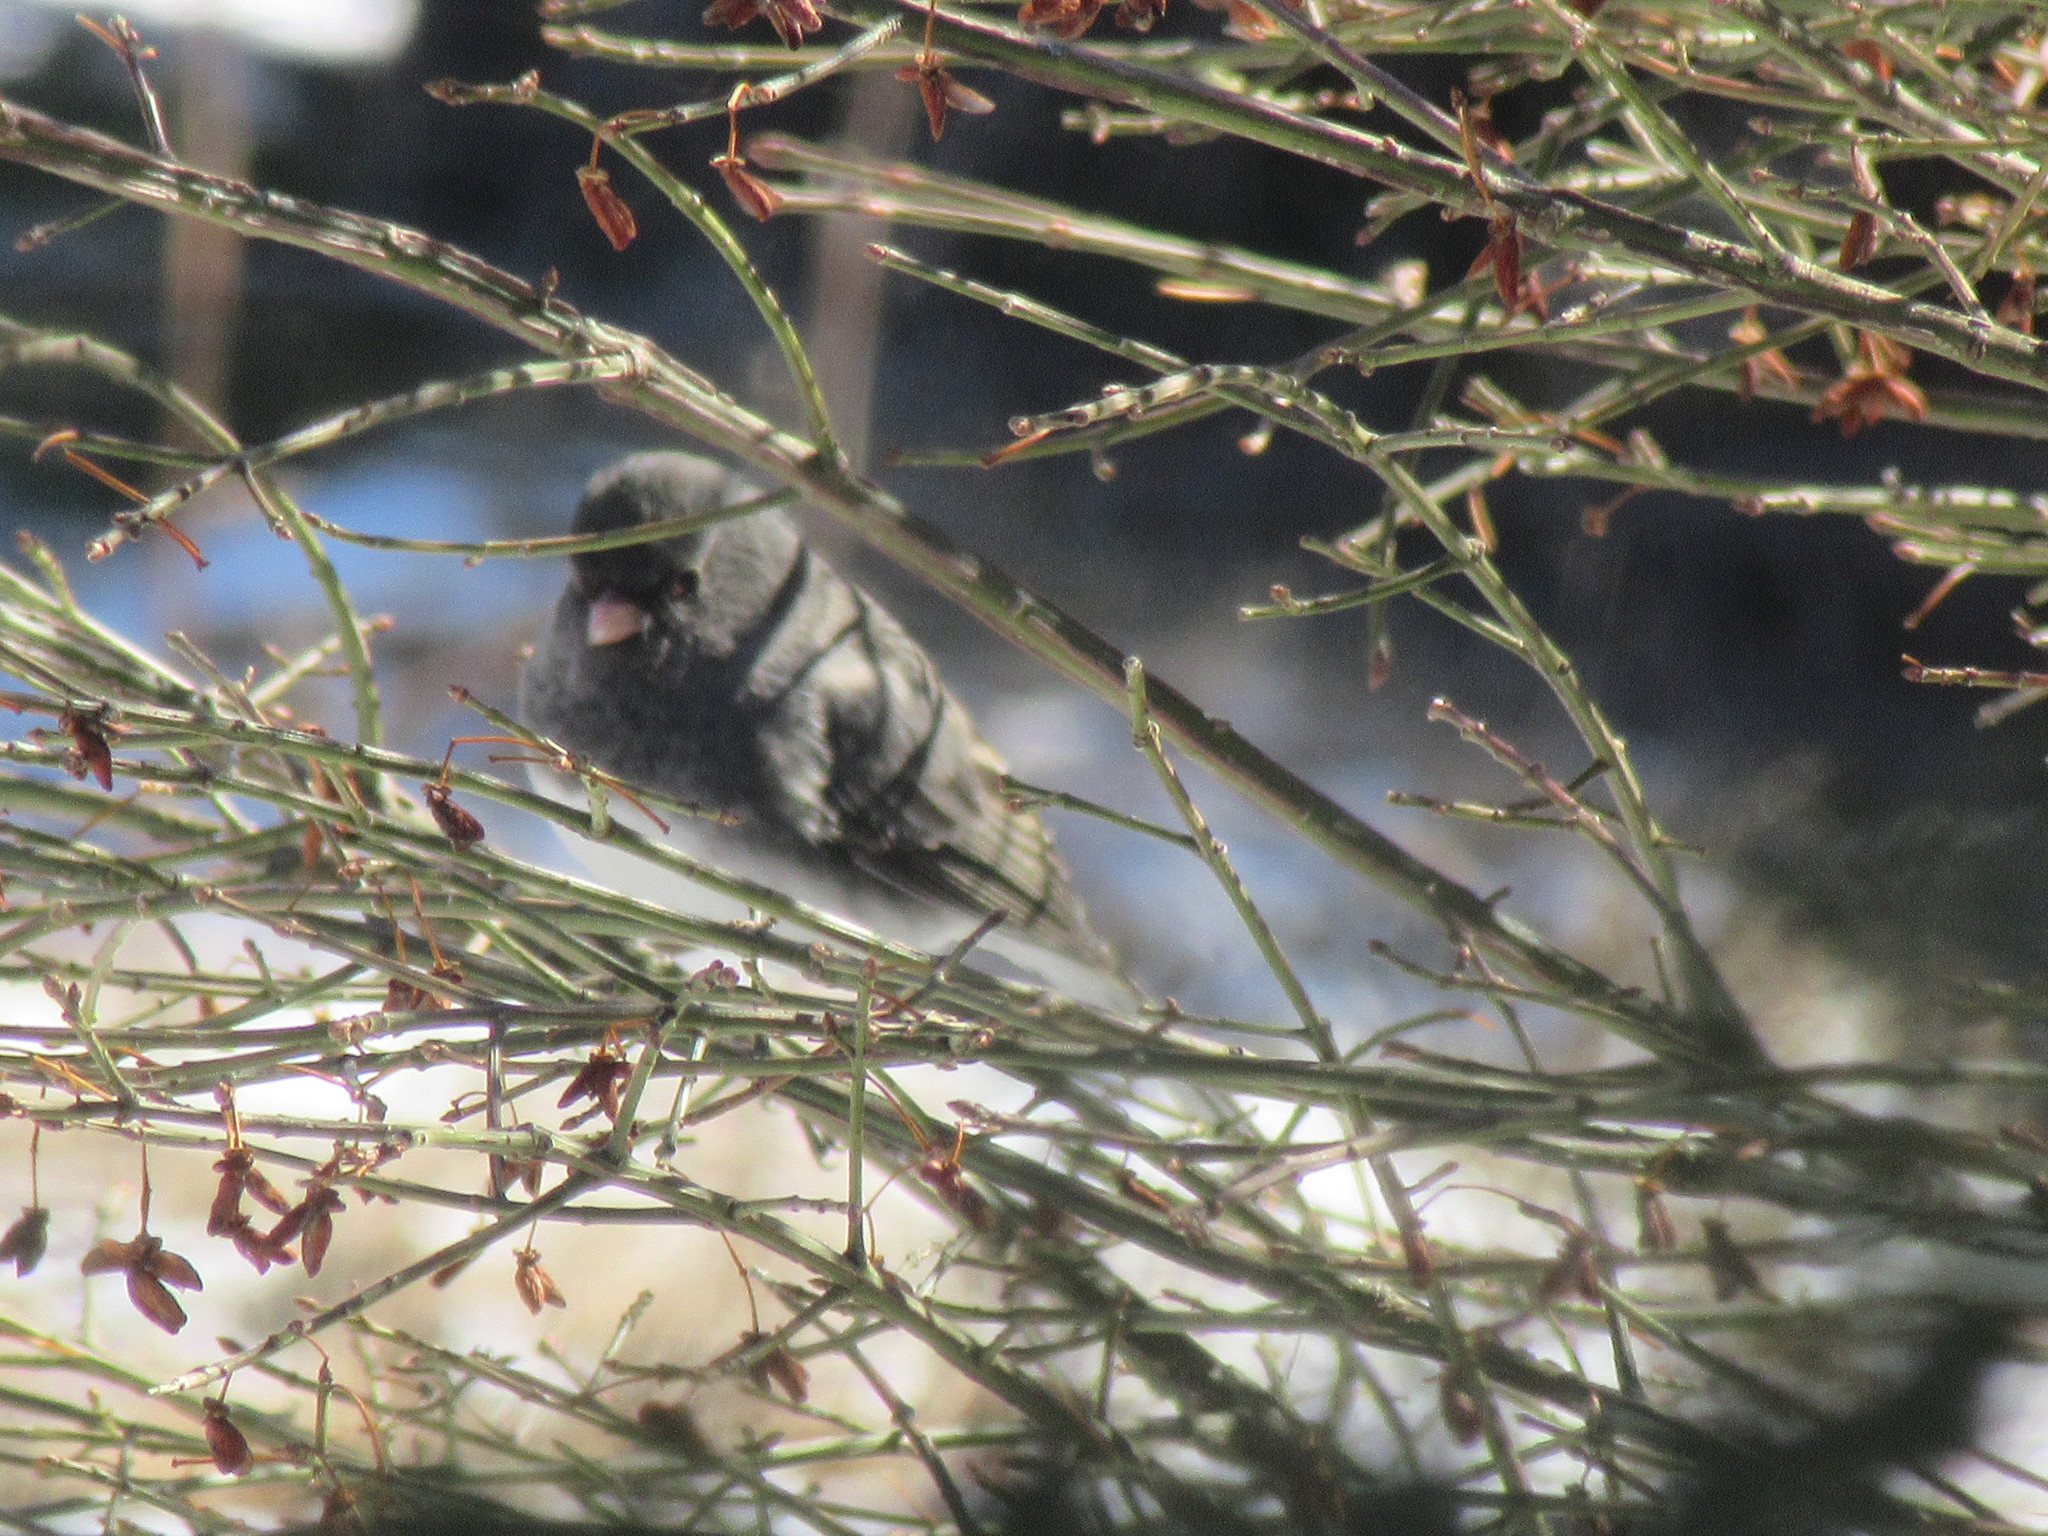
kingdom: Animalia
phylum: Chordata
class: Aves
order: Passeriformes
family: Passerellidae
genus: Junco
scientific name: Junco hyemalis
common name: Dark-eyed junco
